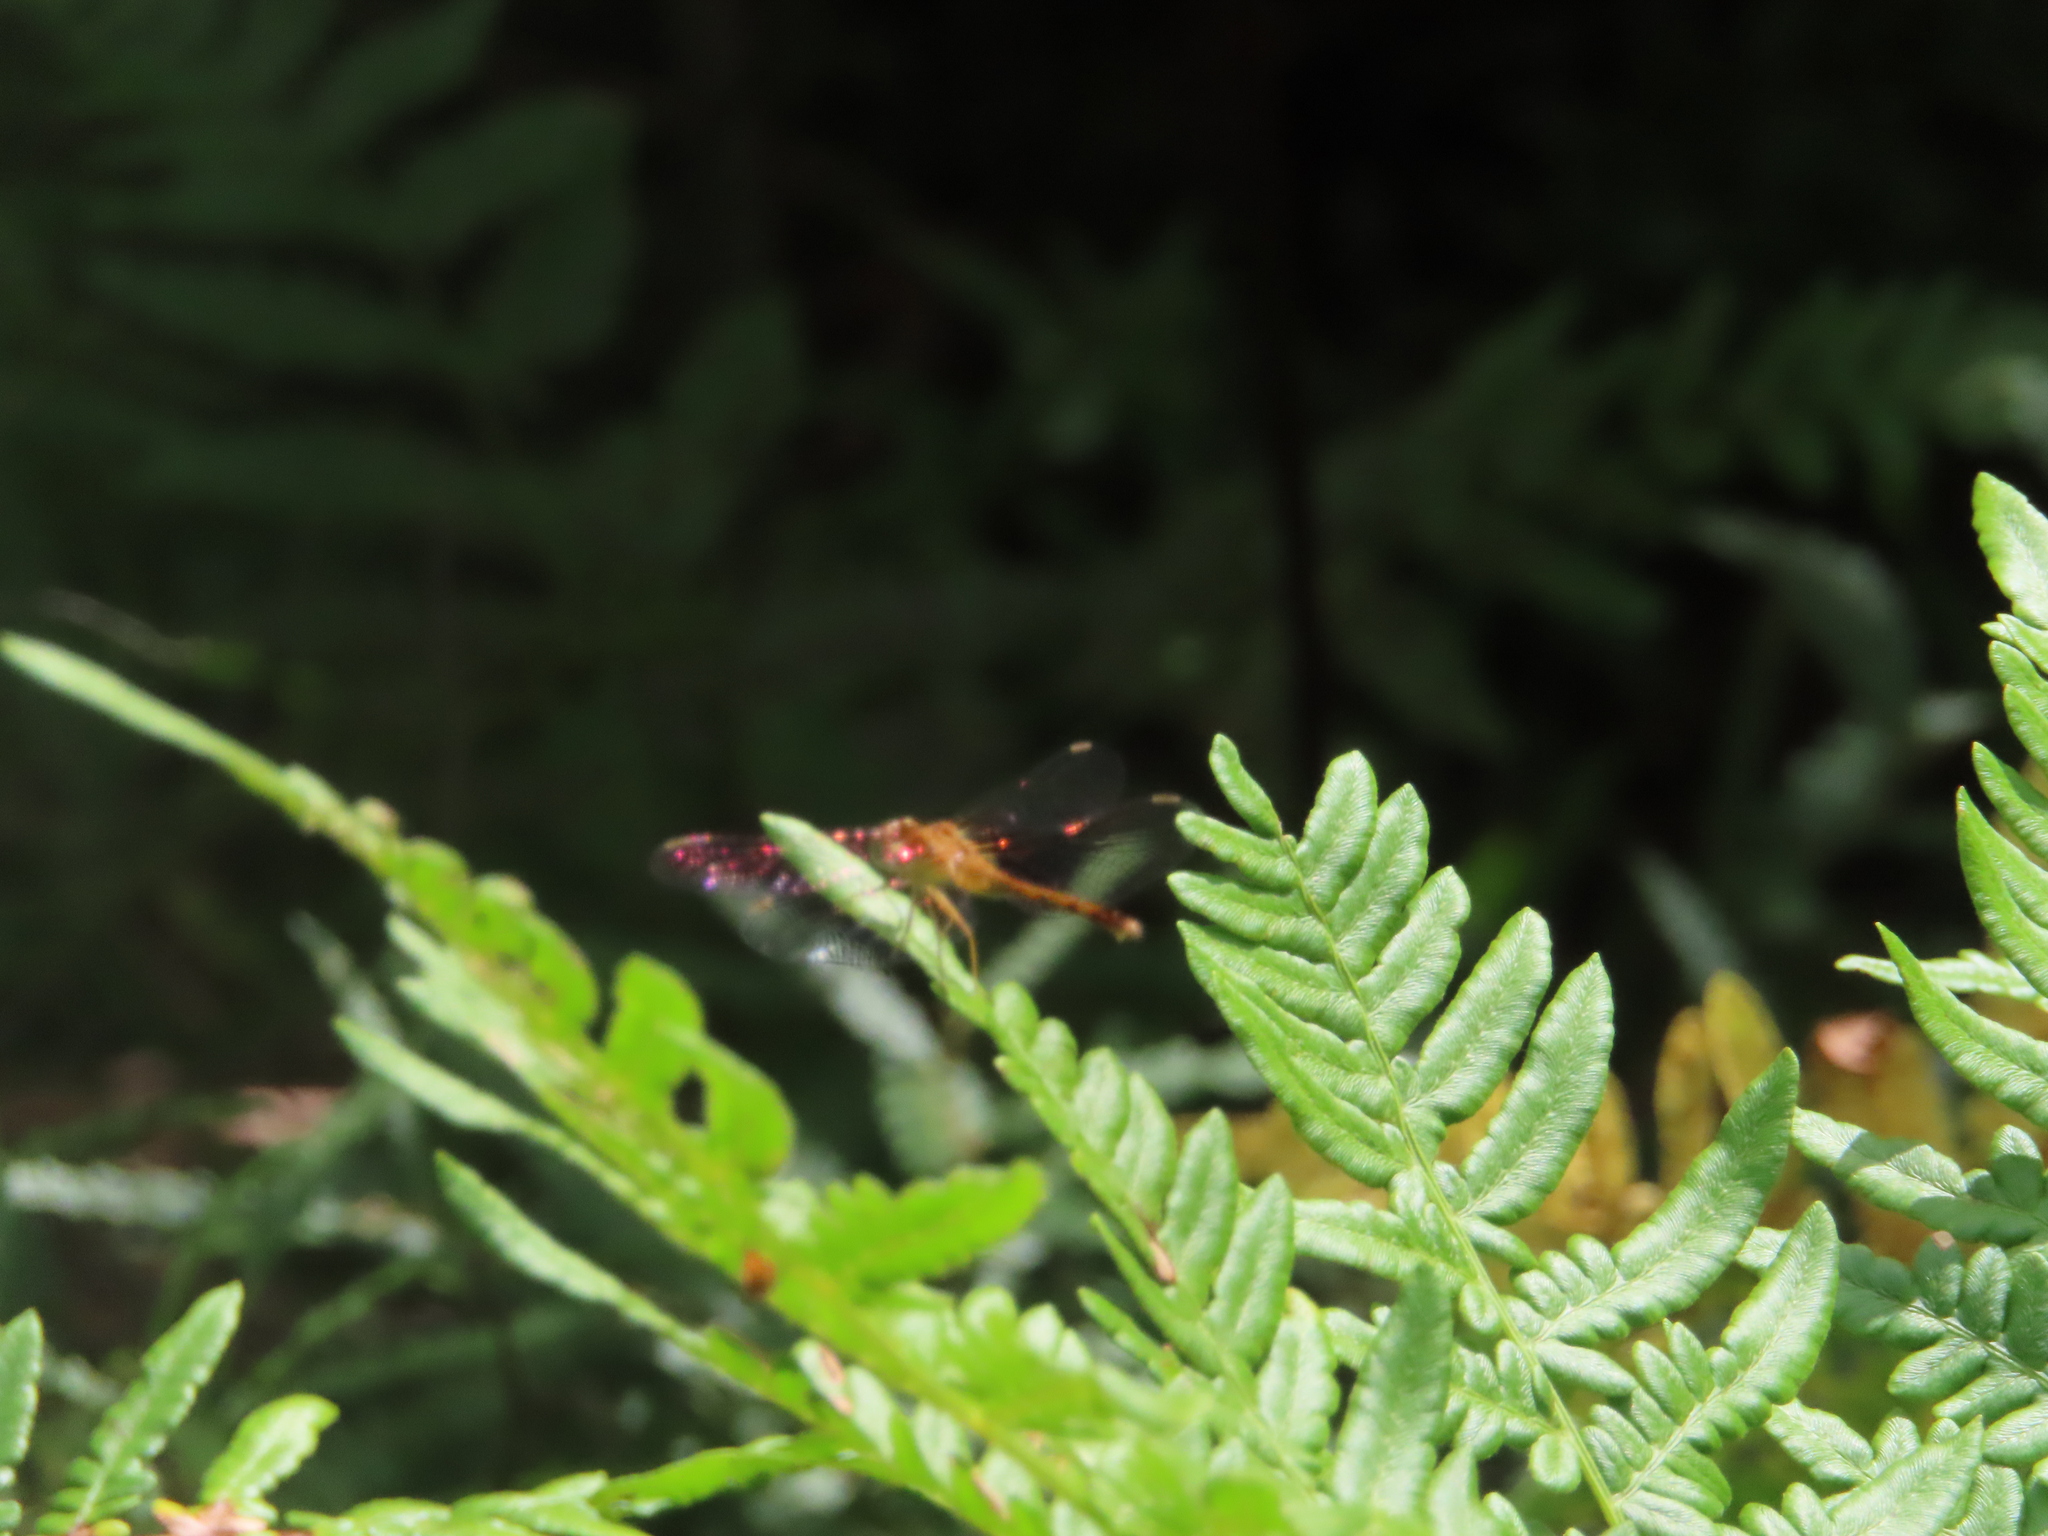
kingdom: Animalia
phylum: Arthropoda
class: Insecta
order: Odonata
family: Libellulidae
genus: Sympetrum
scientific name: Sympetrum vicinum
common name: Autumn meadowhawk
